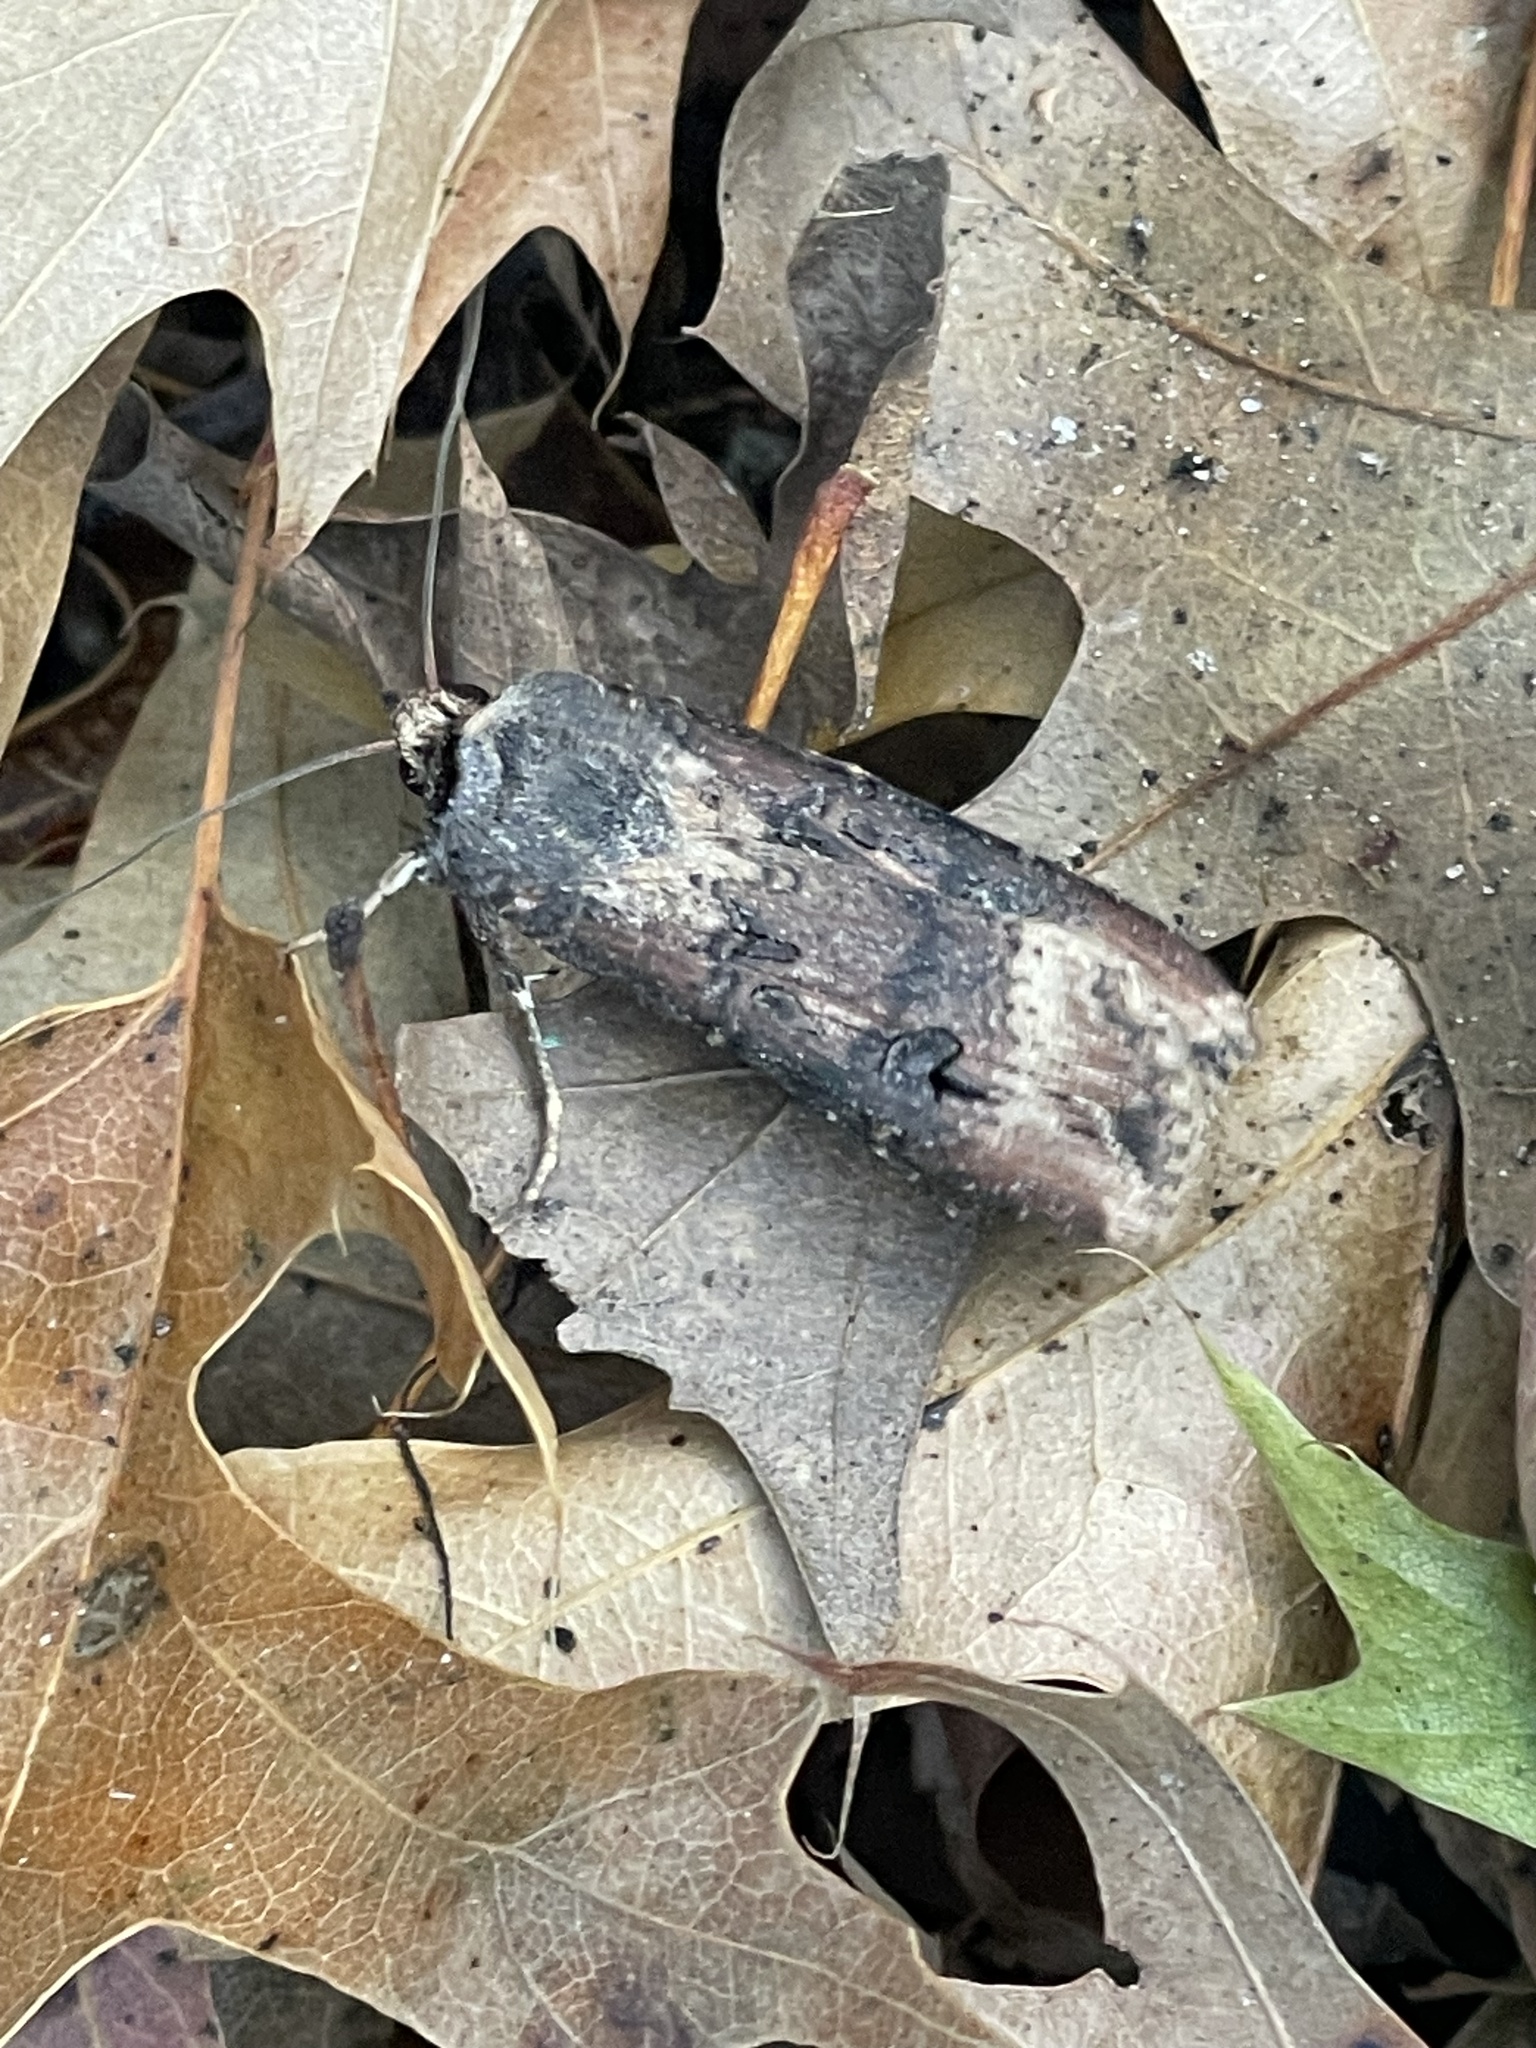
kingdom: Animalia
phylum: Arthropoda
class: Insecta
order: Lepidoptera
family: Noctuidae
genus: Agrotis
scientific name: Agrotis ipsilon
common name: Dark sword-grass
